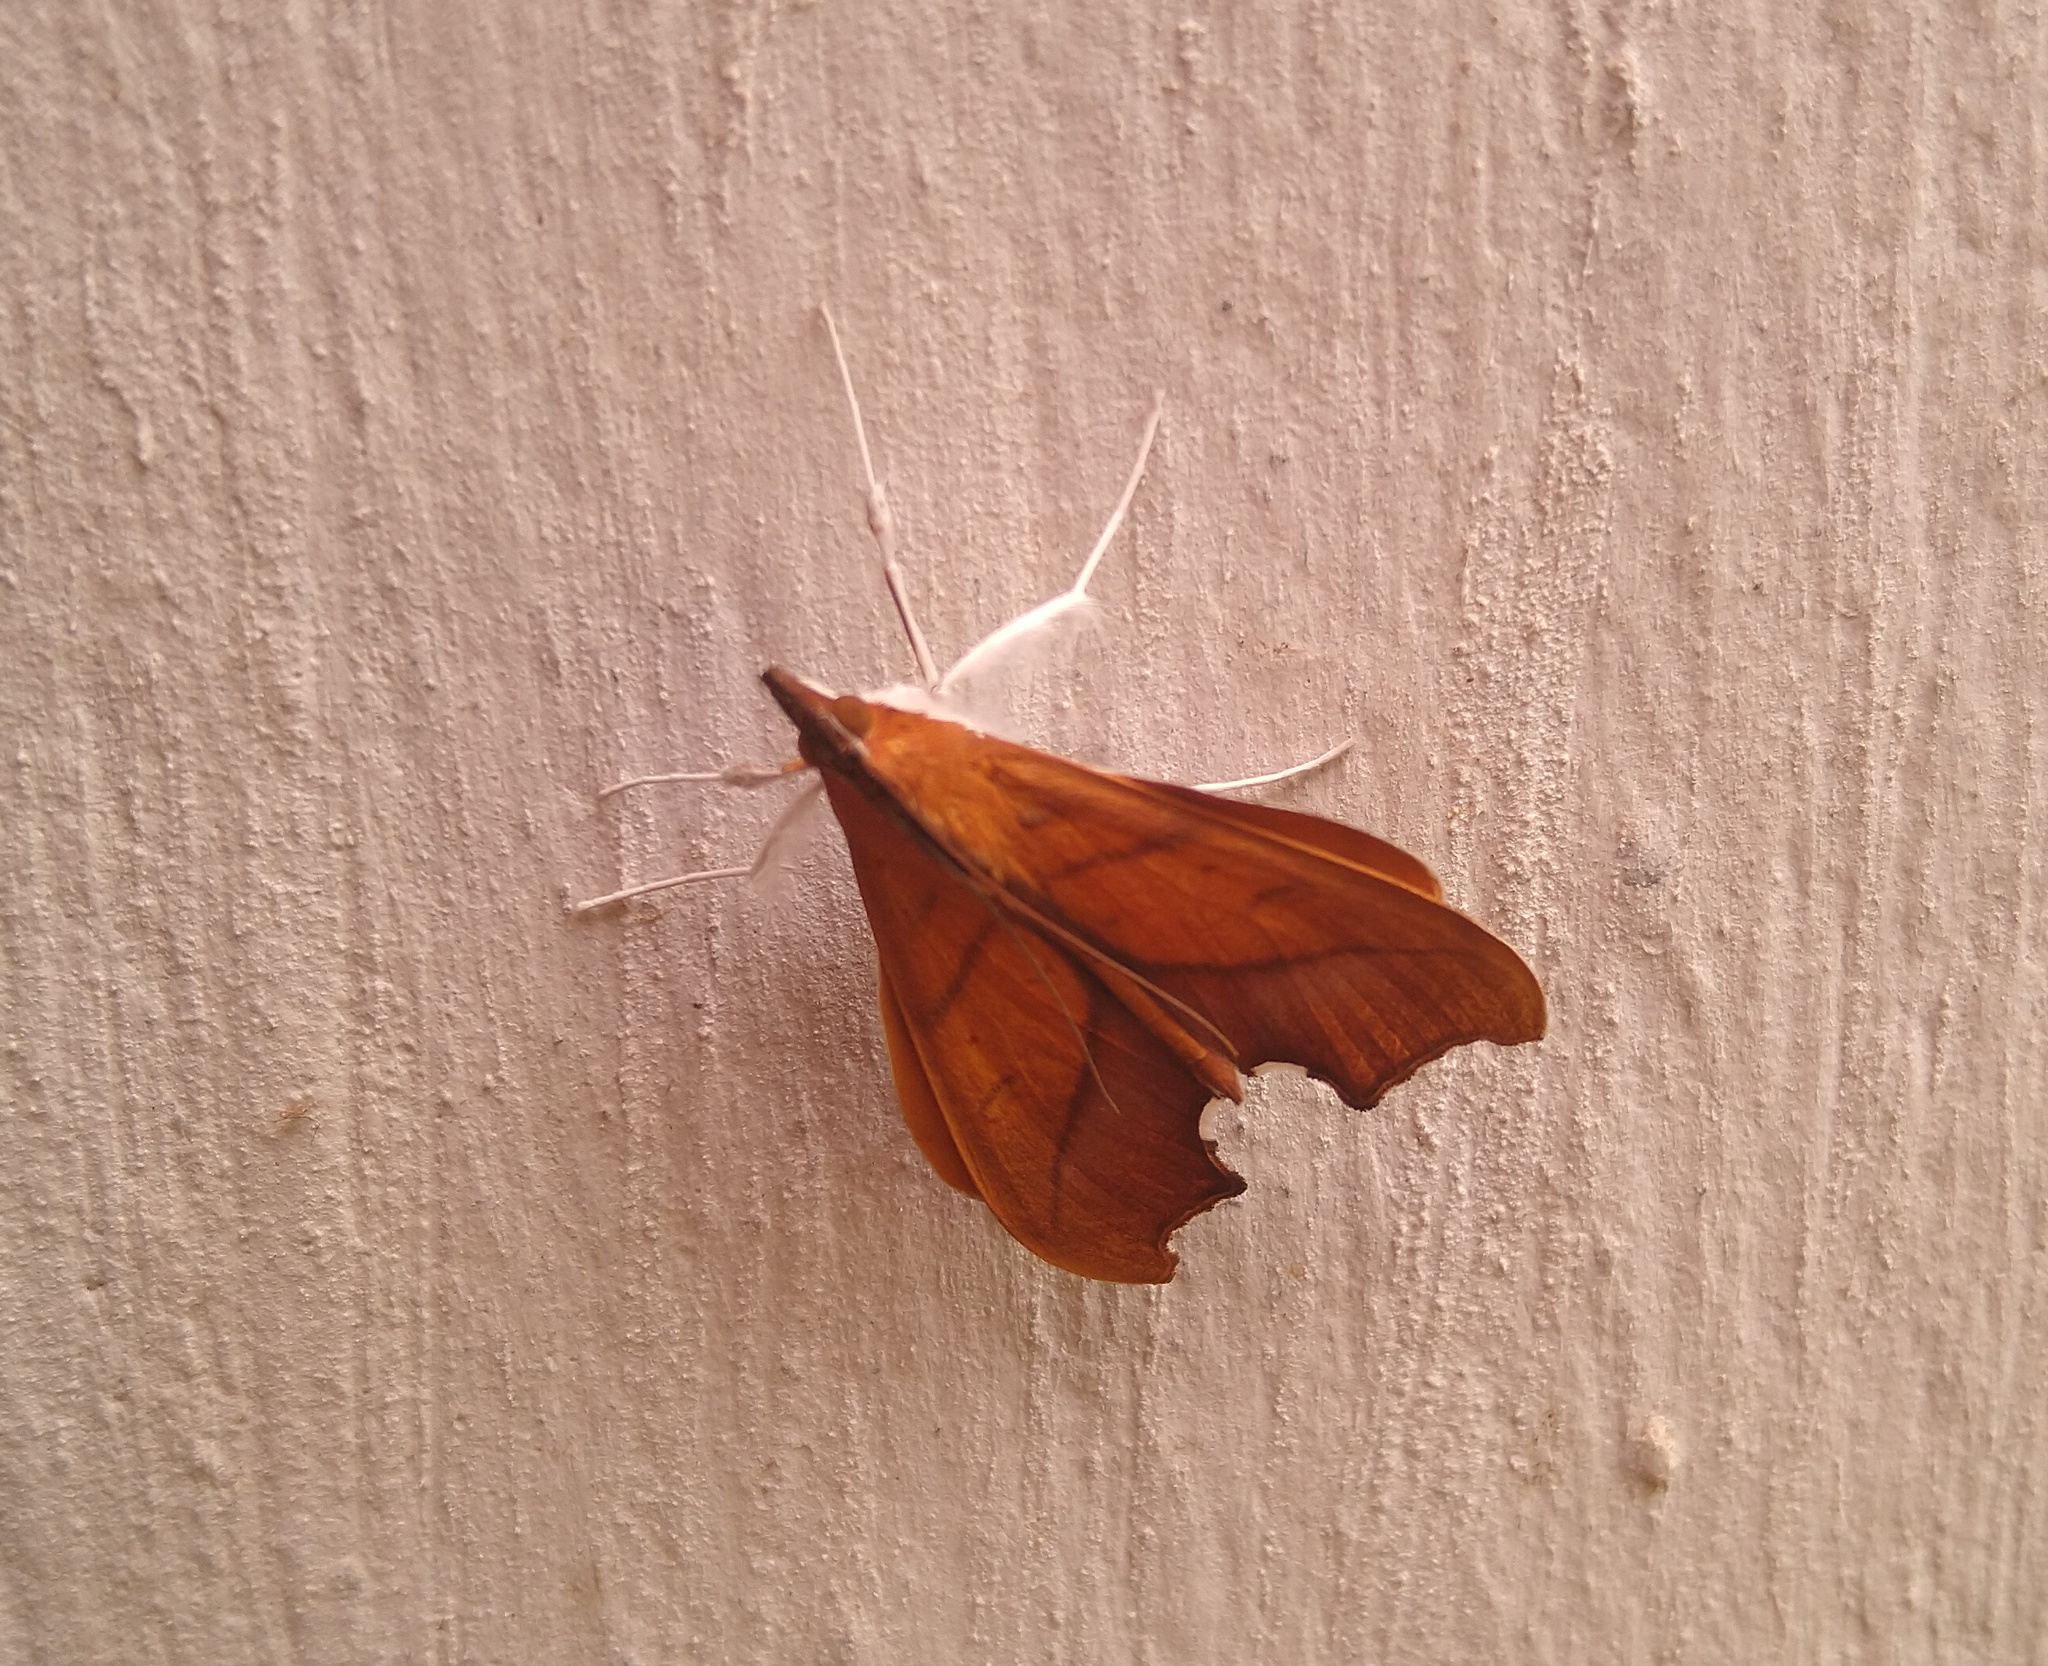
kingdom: Animalia
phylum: Arthropoda
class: Insecta
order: Lepidoptera
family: Crambidae
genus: Sparagmia
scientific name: Sparagmia gonoptera
